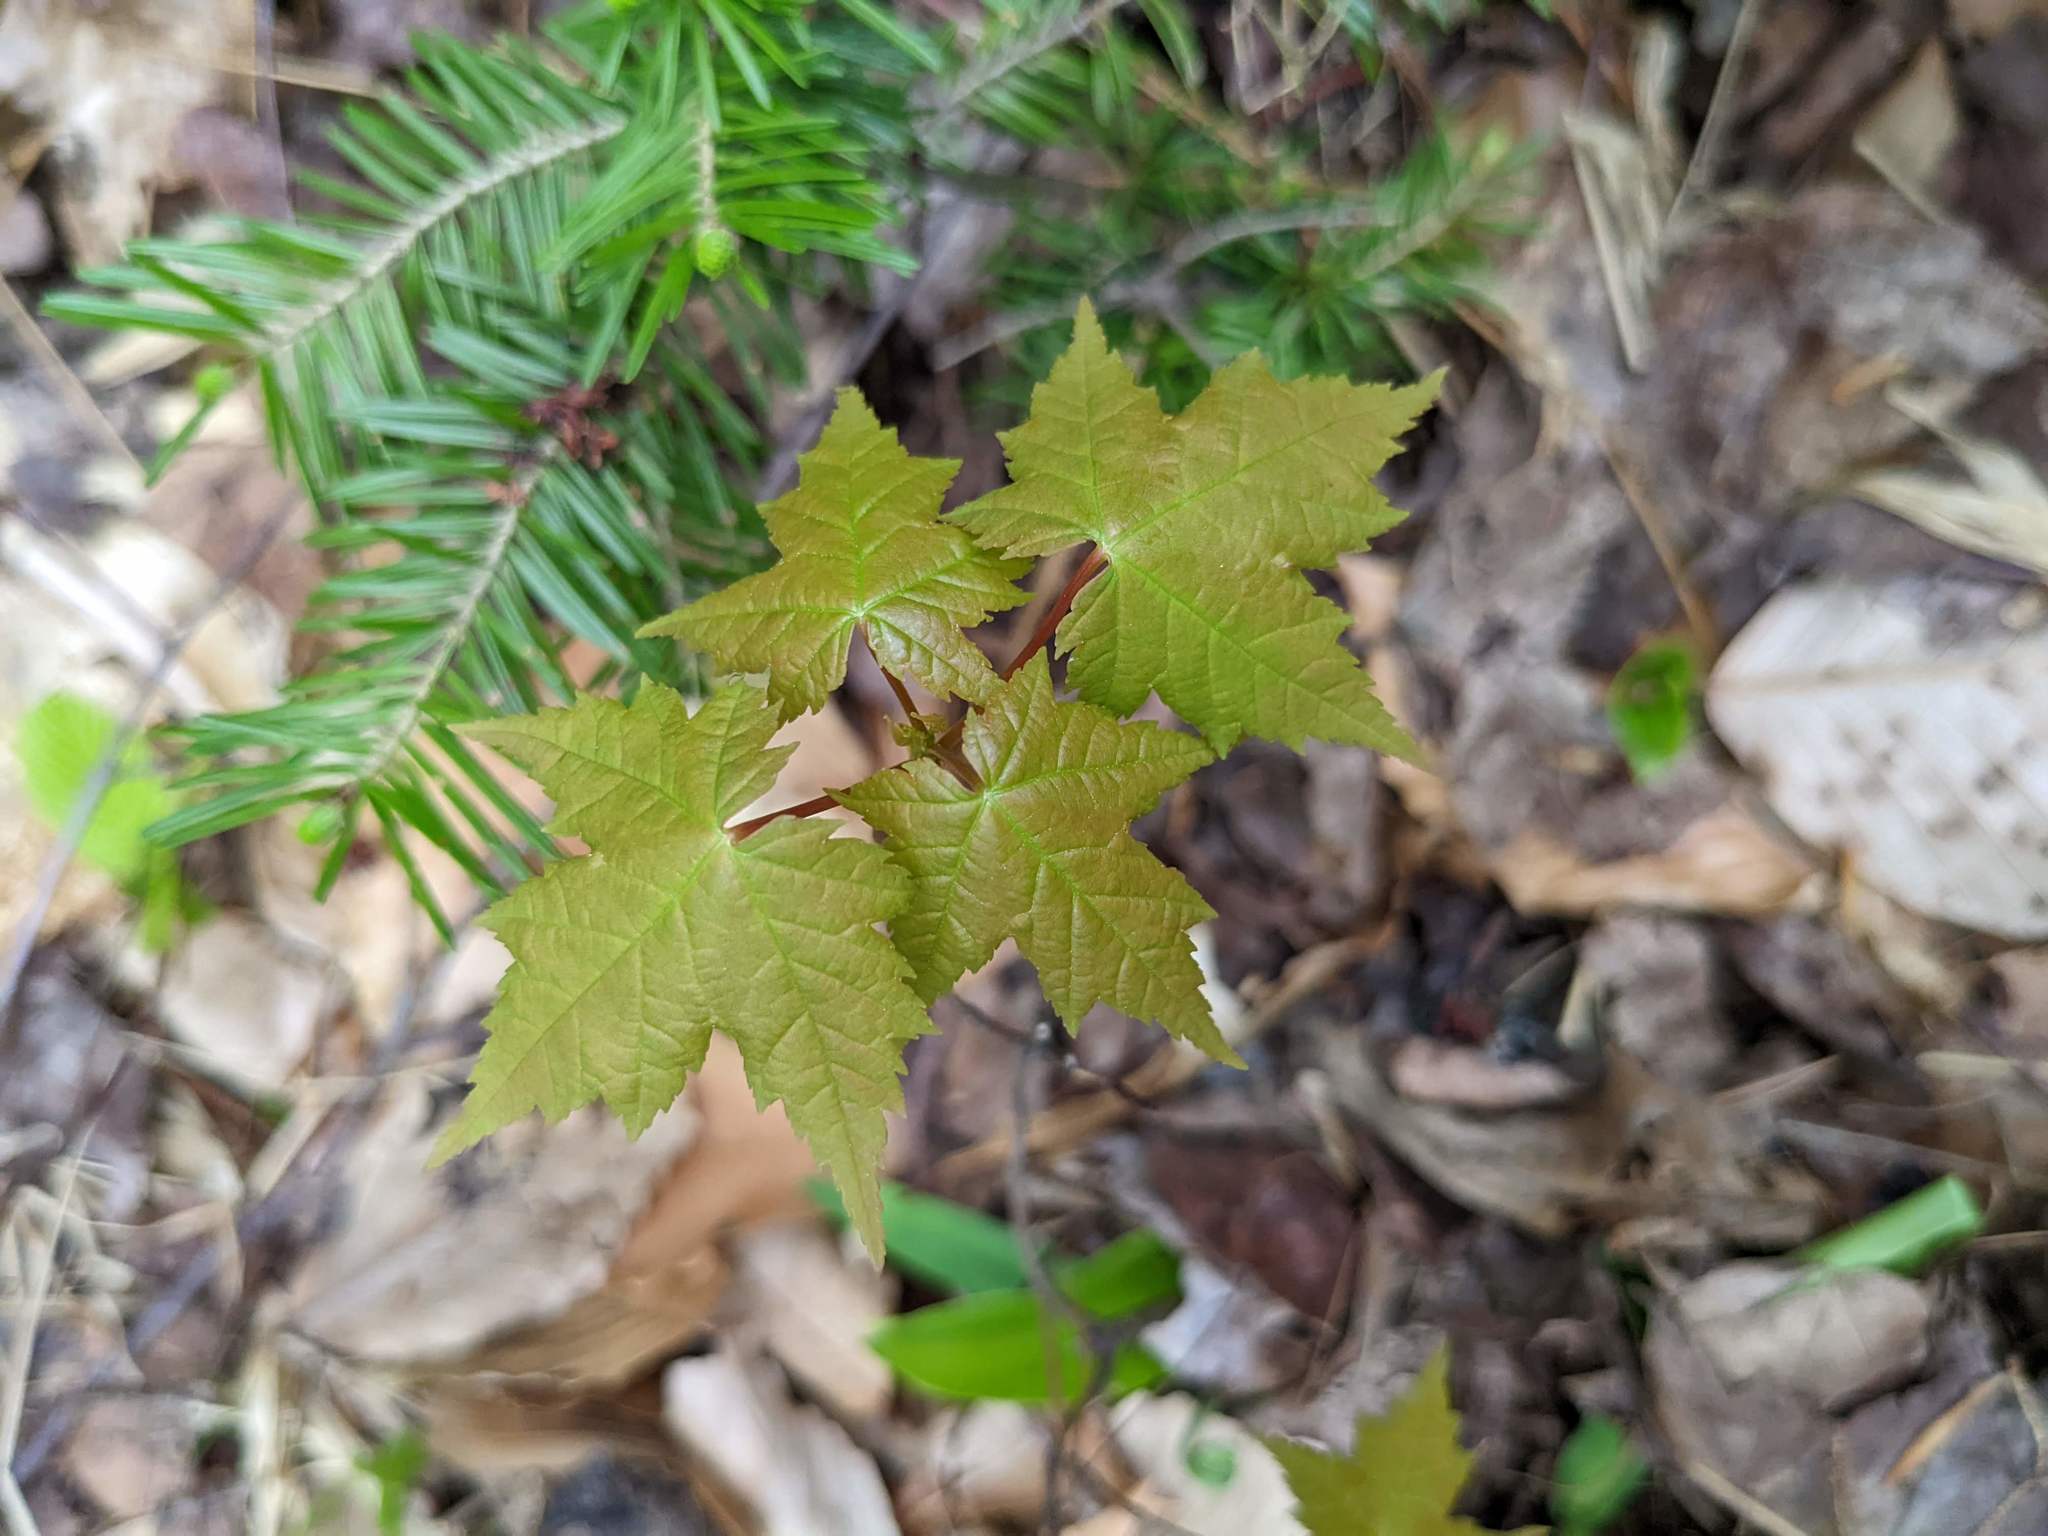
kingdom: Plantae
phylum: Tracheophyta
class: Magnoliopsida
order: Sapindales
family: Sapindaceae
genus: Acer
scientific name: Acer rubrum
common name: Red maple
